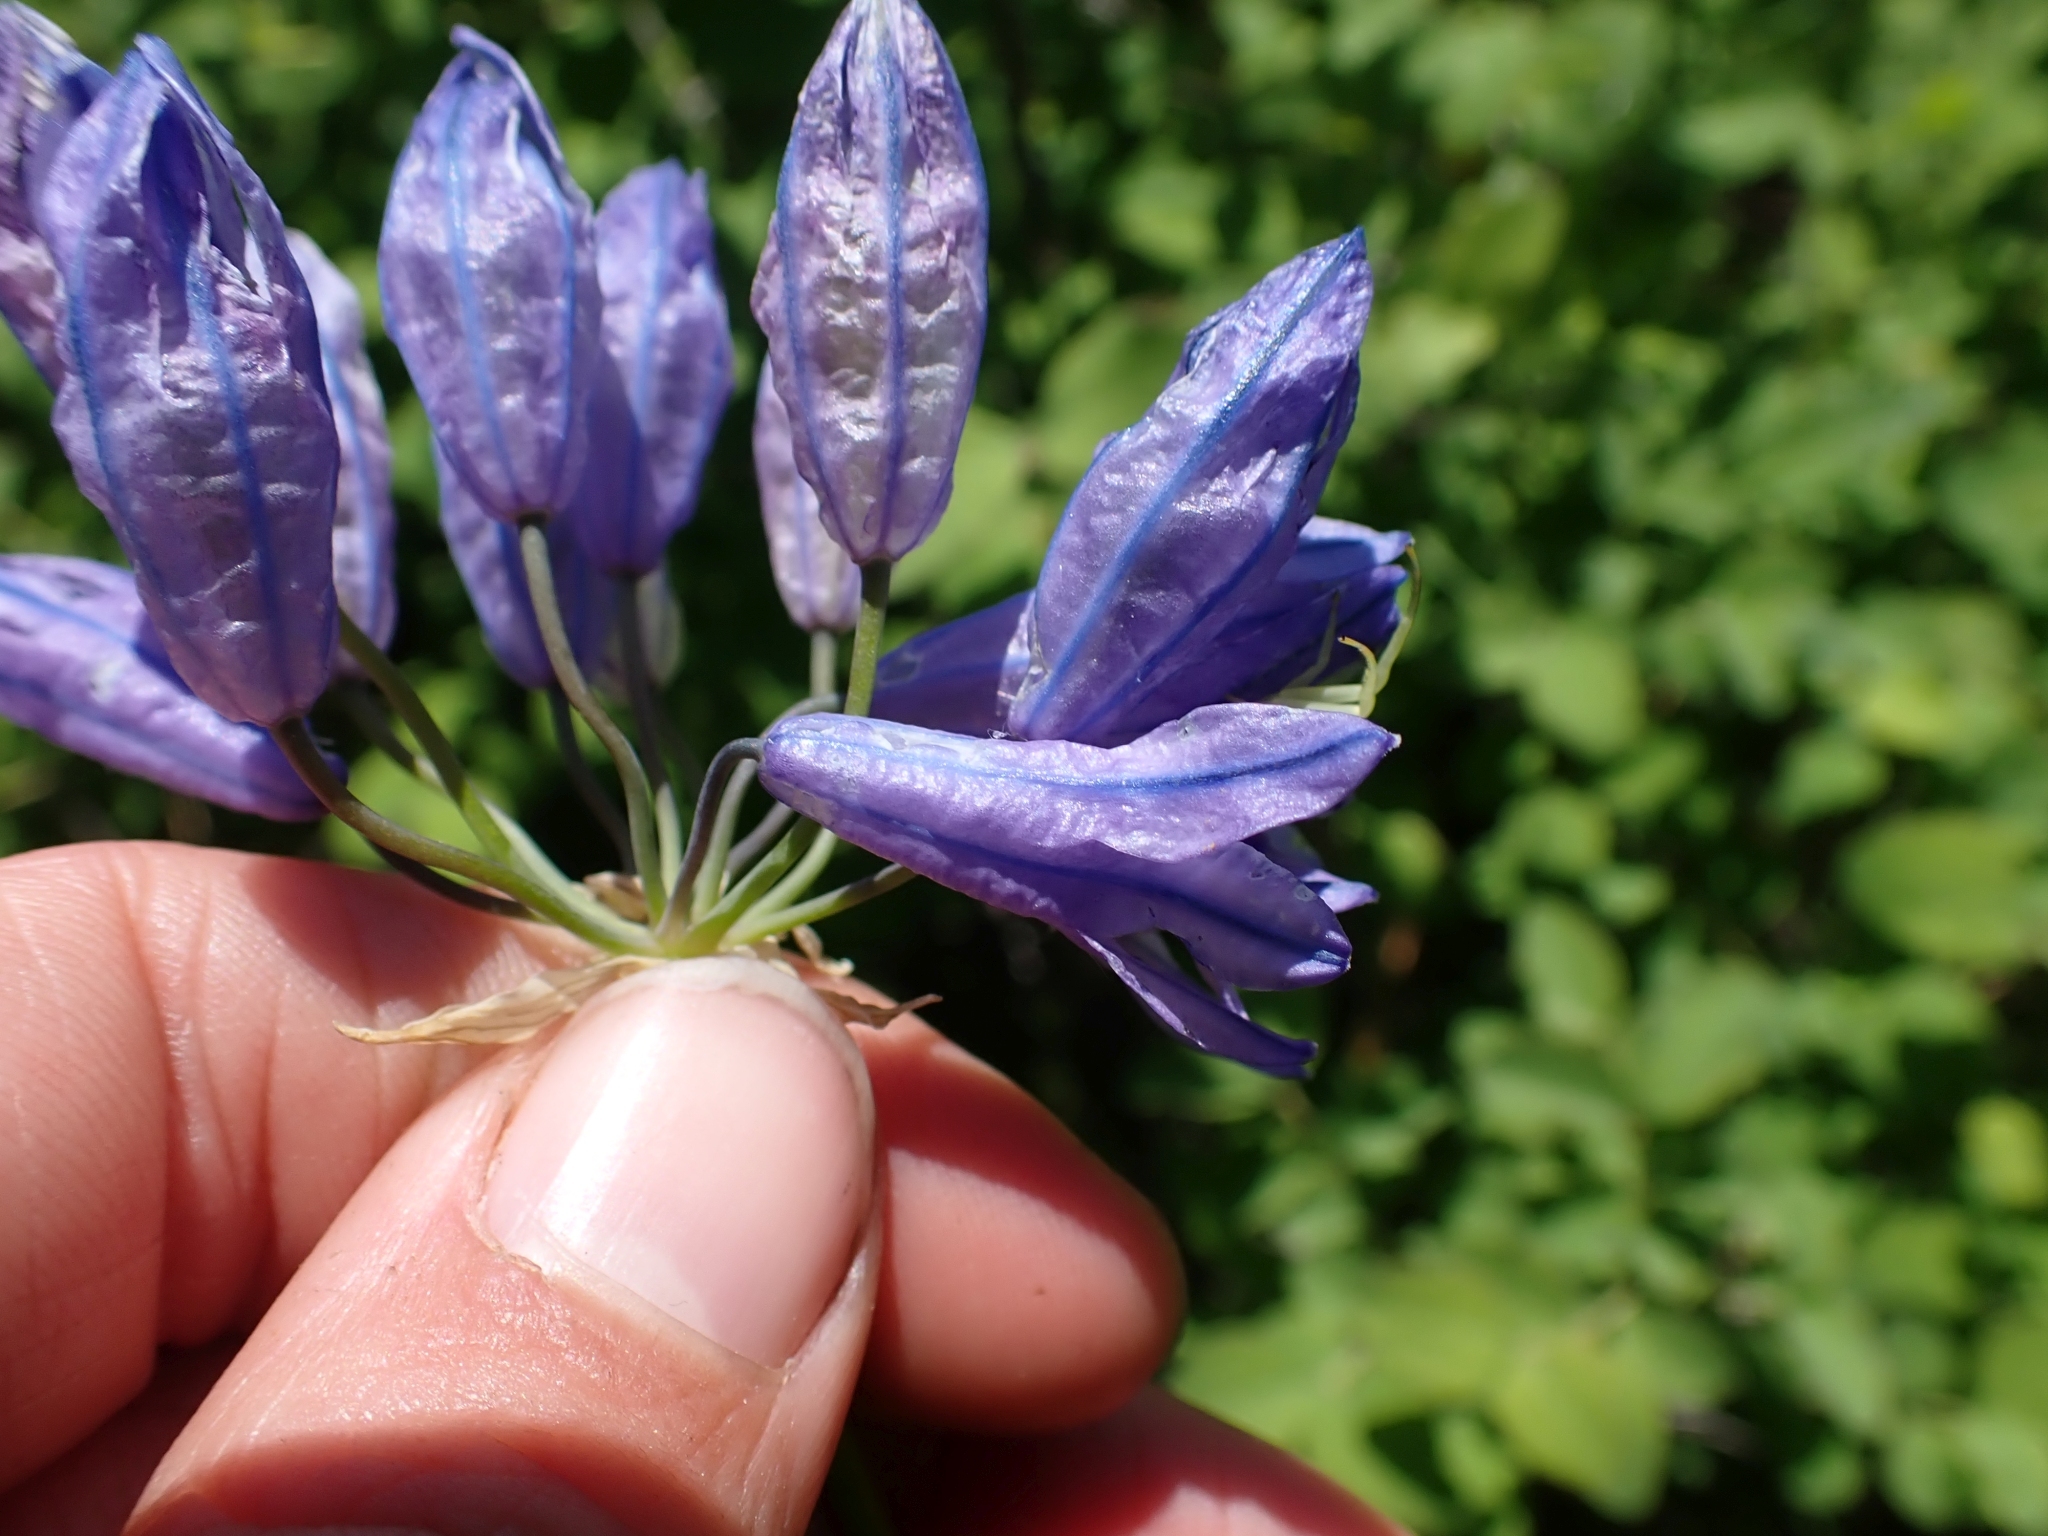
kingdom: Plantae
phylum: Tracheophyta
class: Liliopsida
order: Asparagales
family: Asparagaceae
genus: Triteleia
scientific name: Triteleia grandiflora
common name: Wild hyacinth
